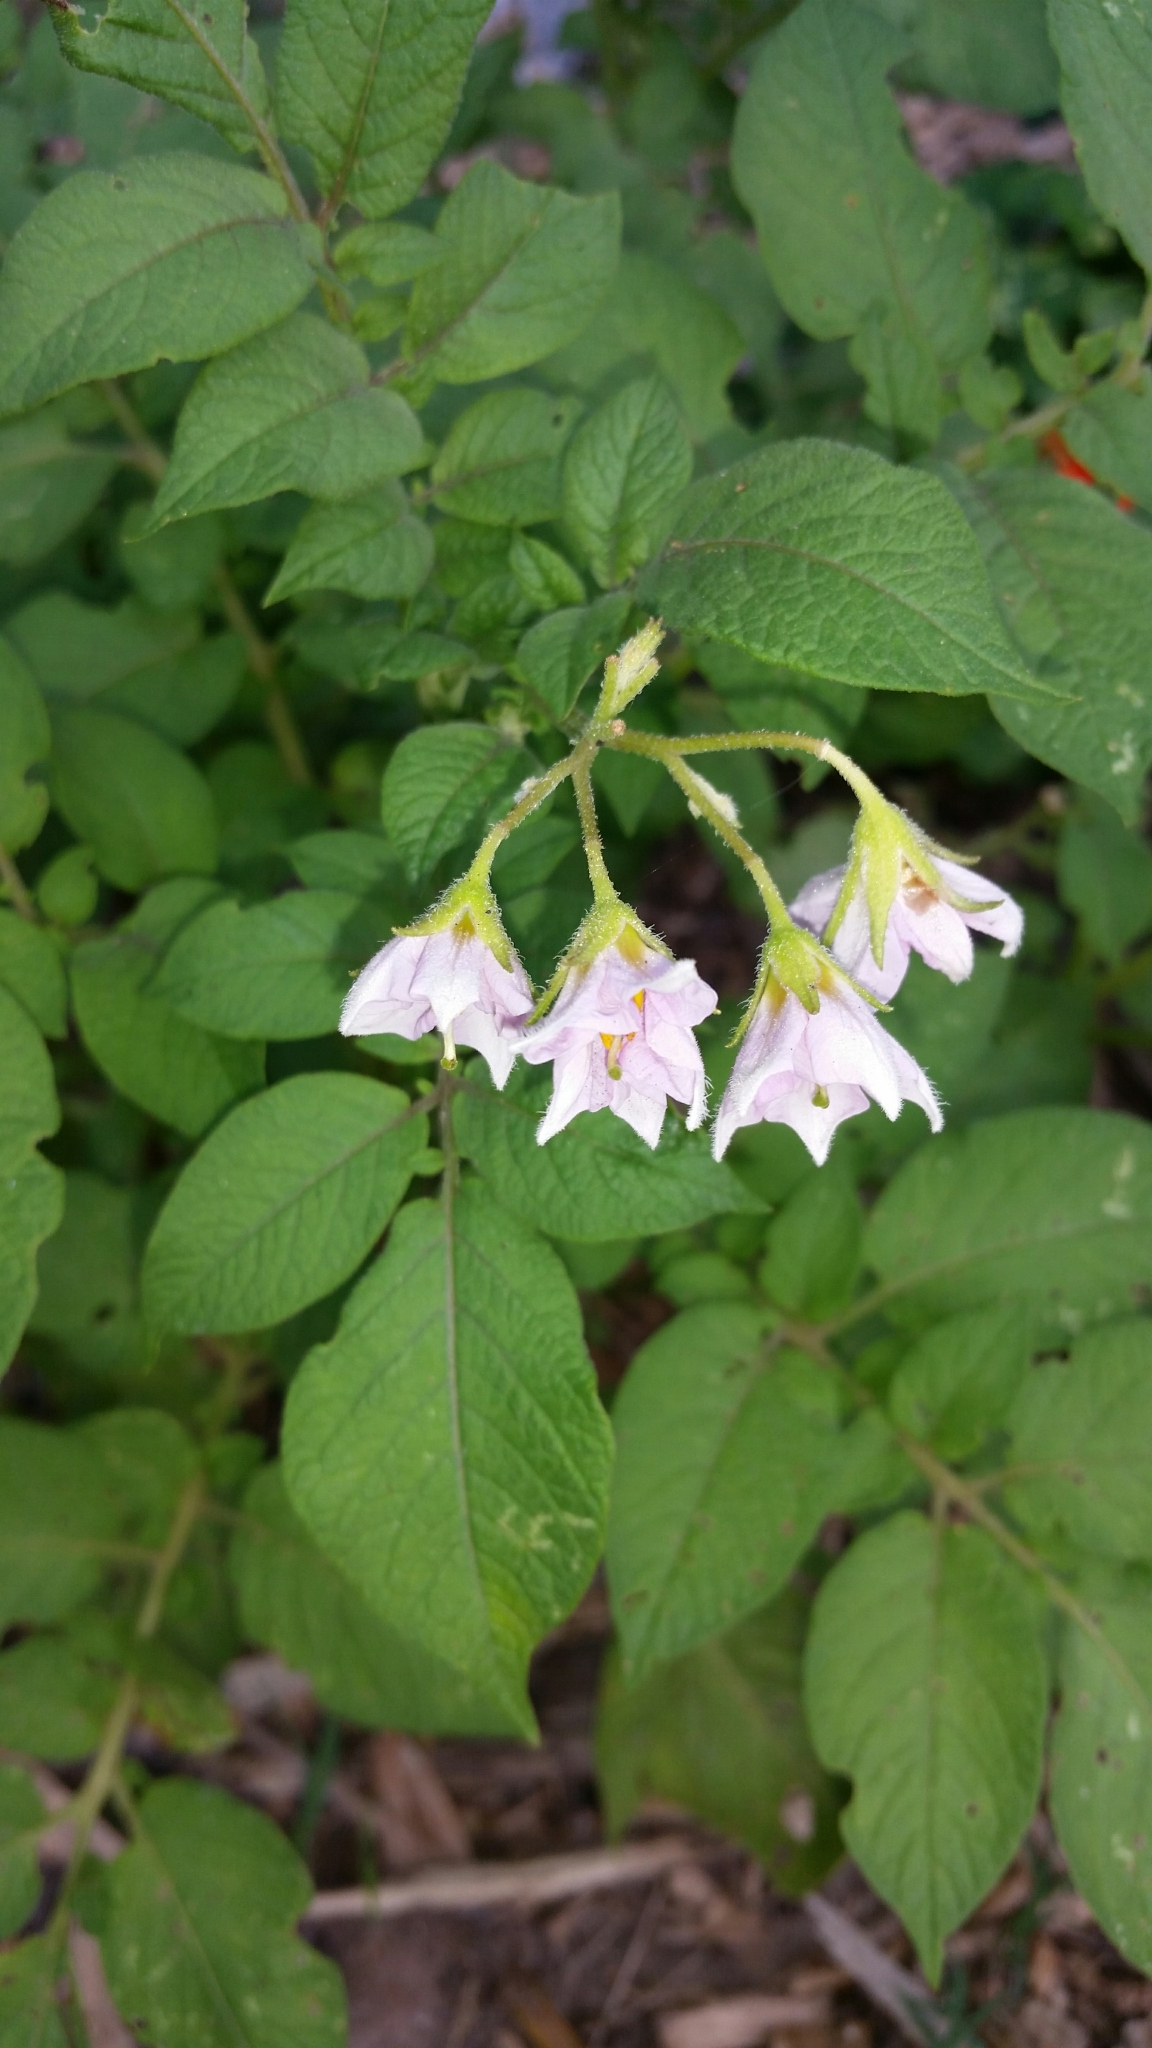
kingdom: Plantae
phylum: Tracheophyta
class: Magnoliopsida
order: Solanales
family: Solanaceae
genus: Solanum
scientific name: Solanum tuberosum
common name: Potato
